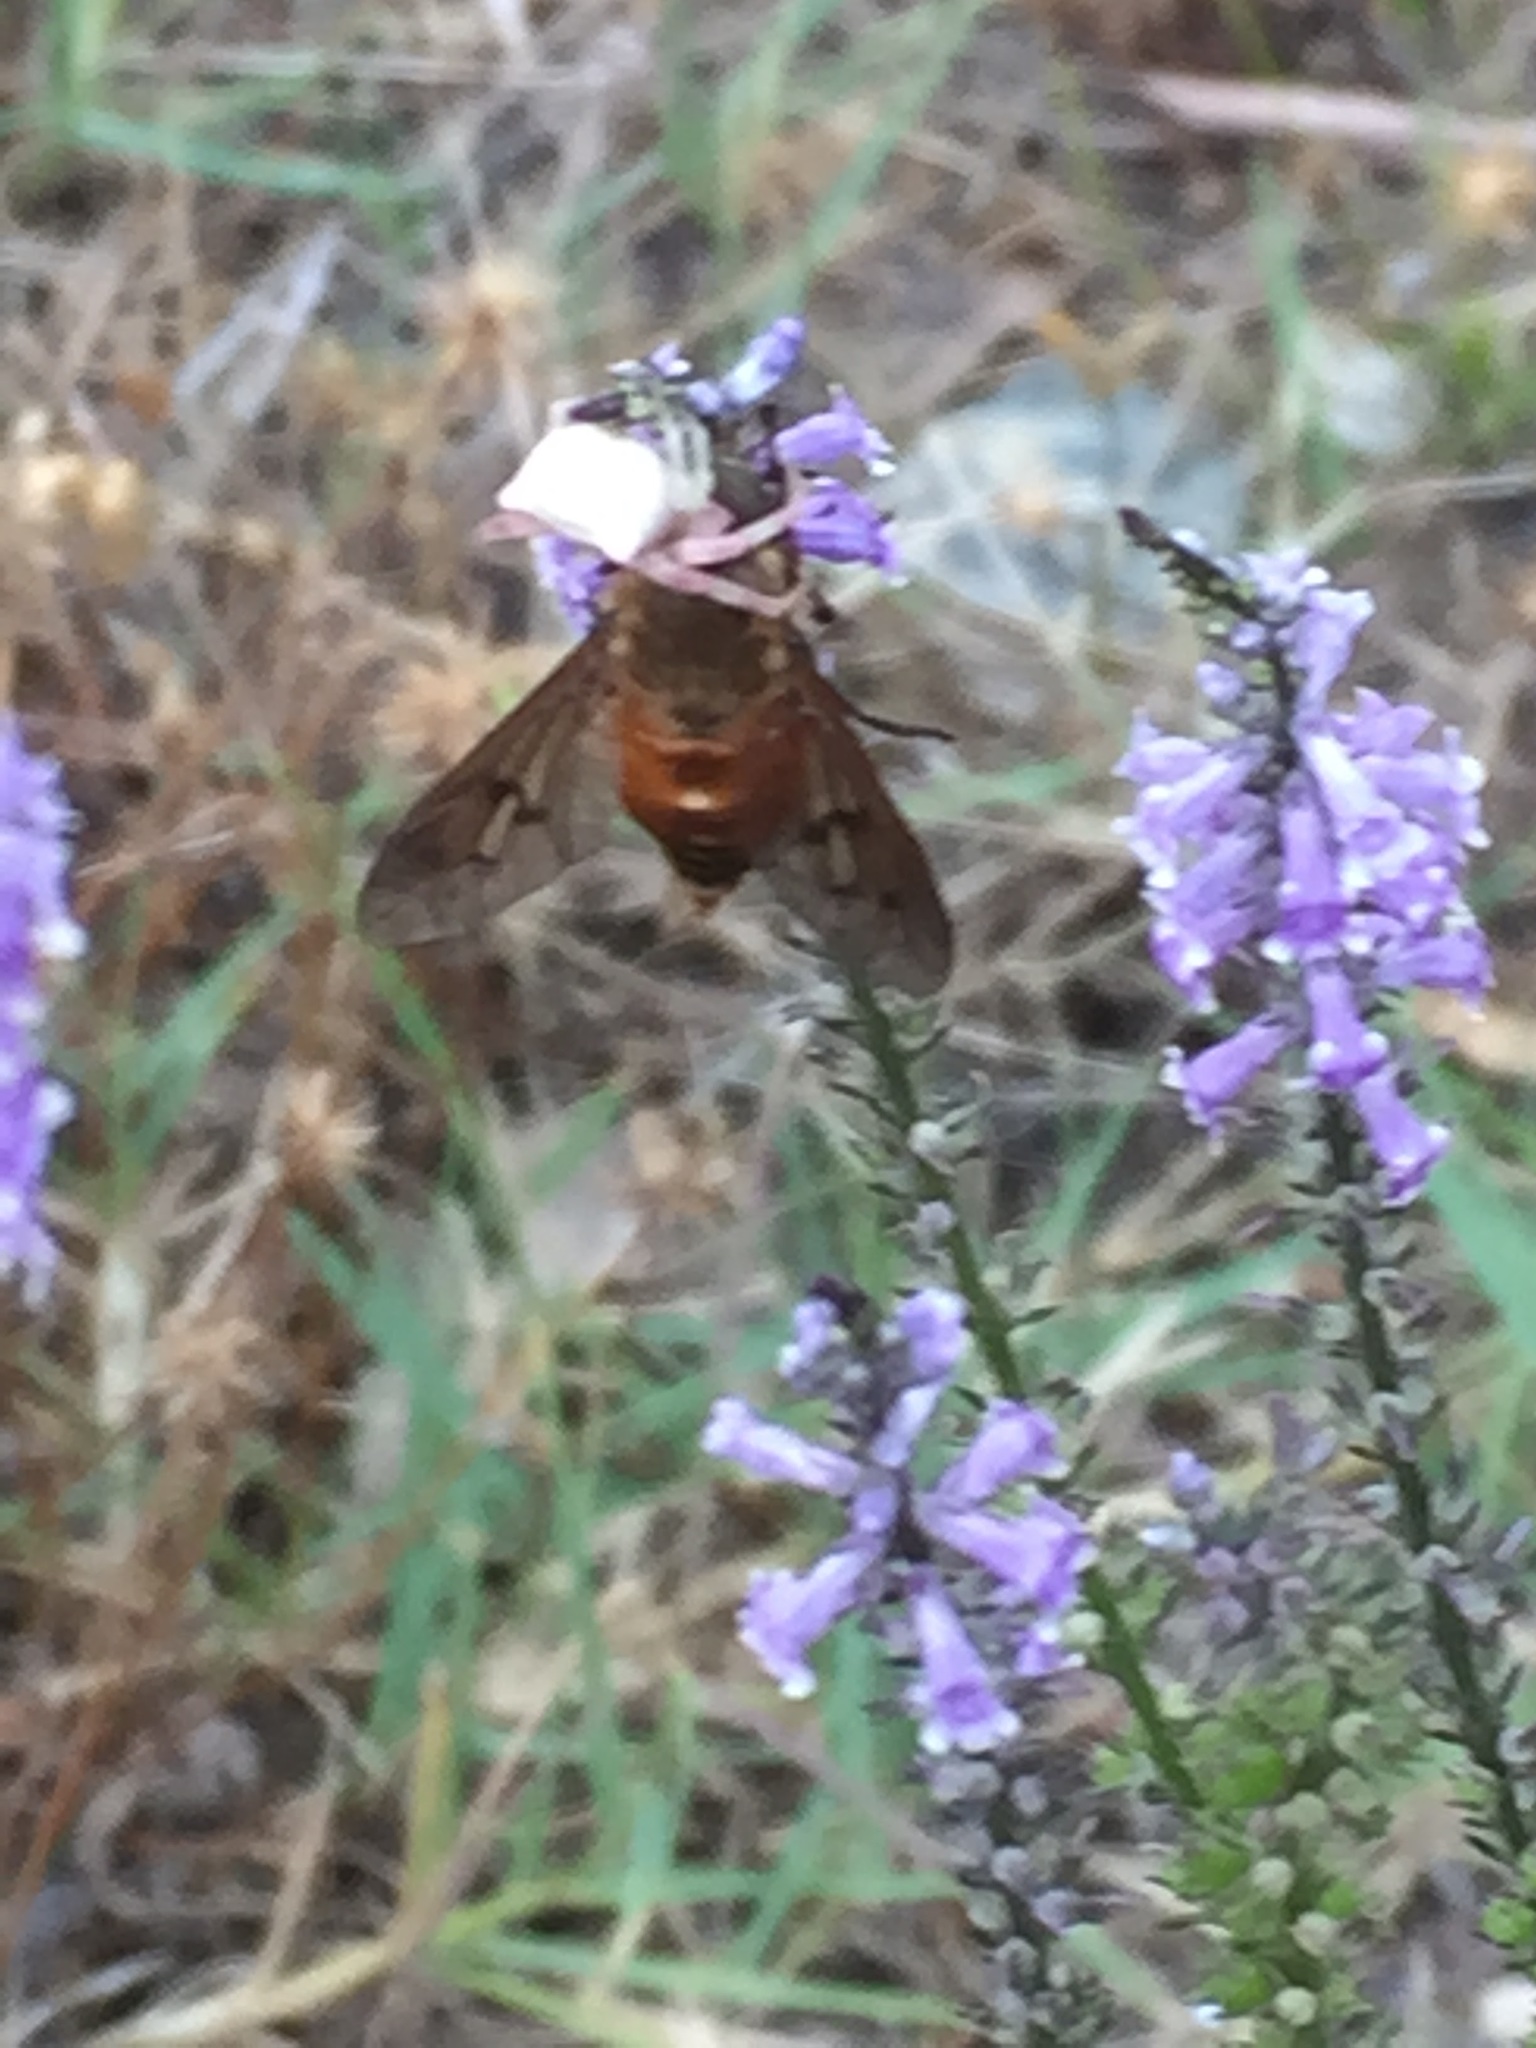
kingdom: Plantae
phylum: Tracheophyta
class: Magnoliopsida
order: Lamiales
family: Plantaginaceae
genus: Anarrhinum
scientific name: Anarrhinum bellidifolium
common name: Daisy-leaved toadflax
